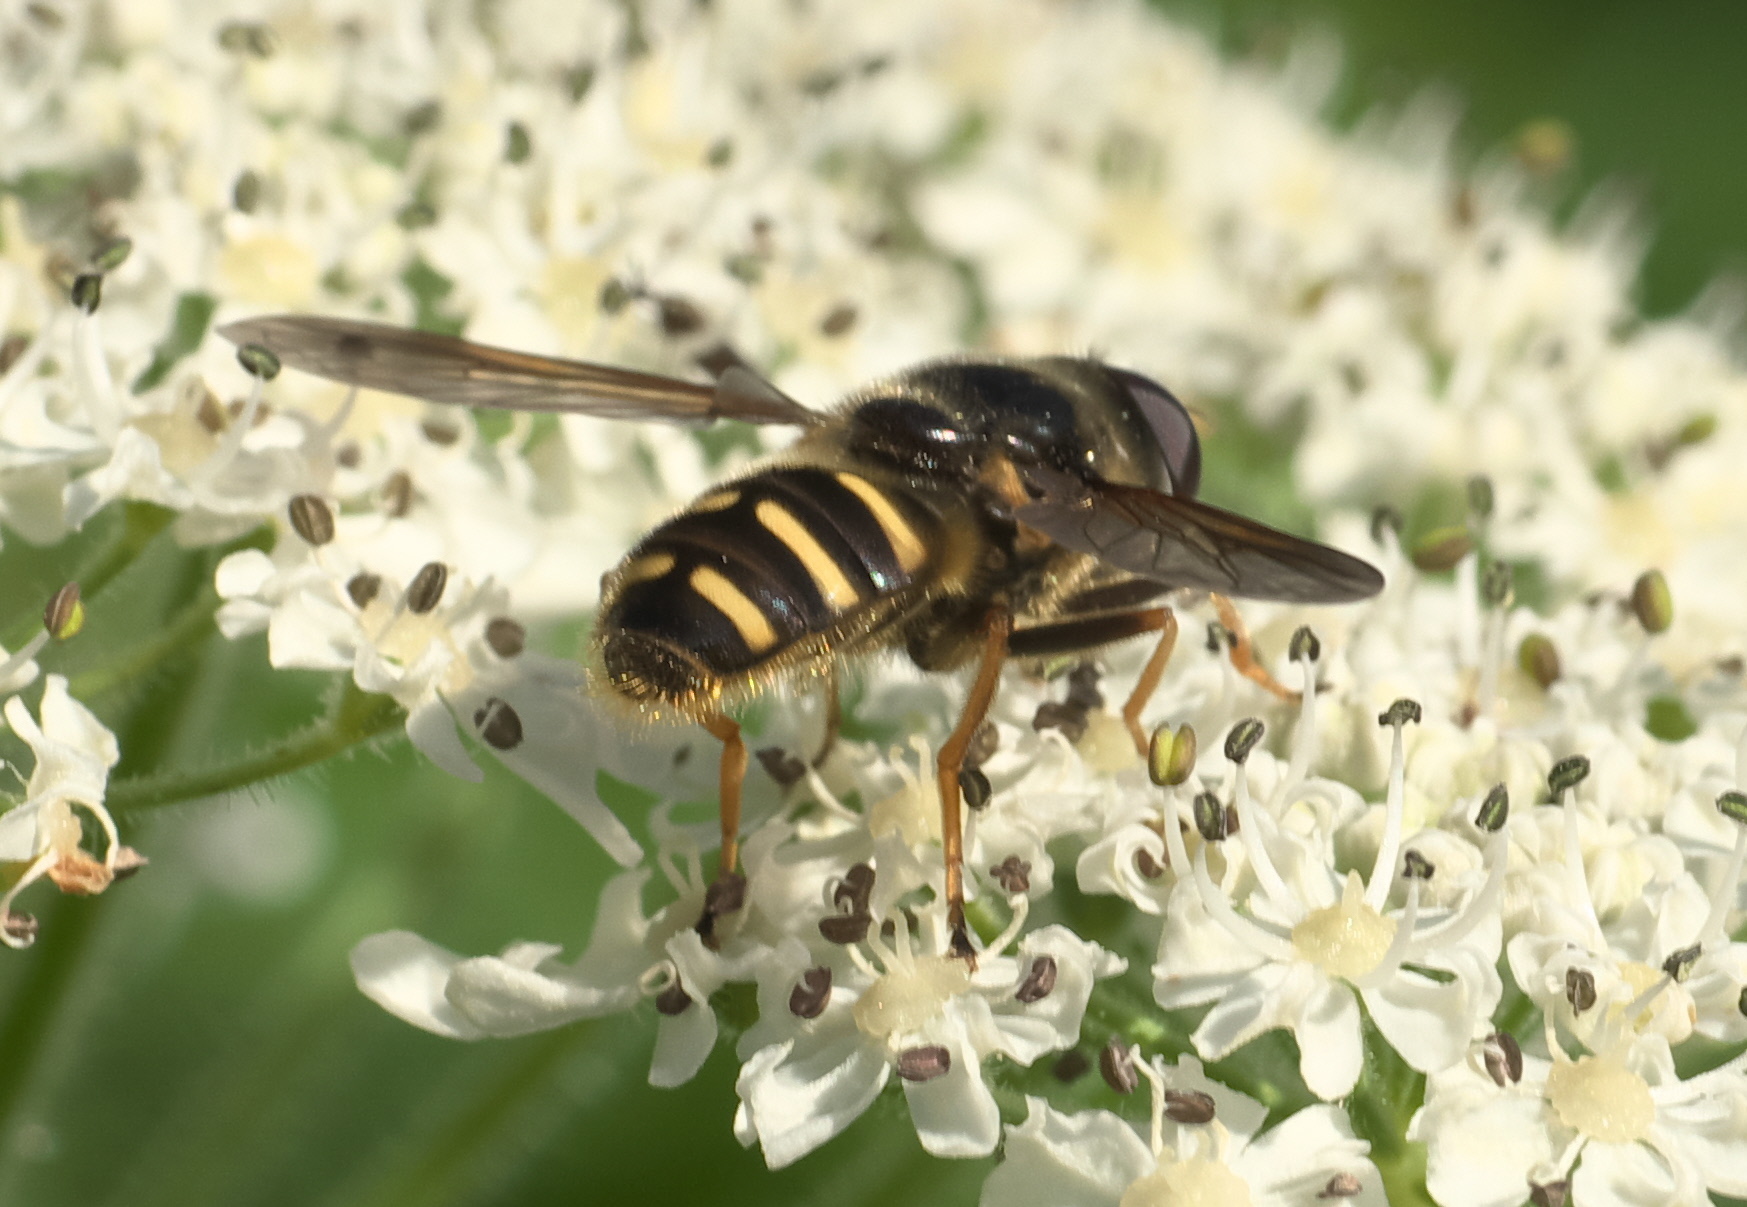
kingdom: Animalia
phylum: Arthropoda
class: Insecta
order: Diptera
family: Syrphidae
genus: Sericomyia
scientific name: Sericomyia chalcopyga
